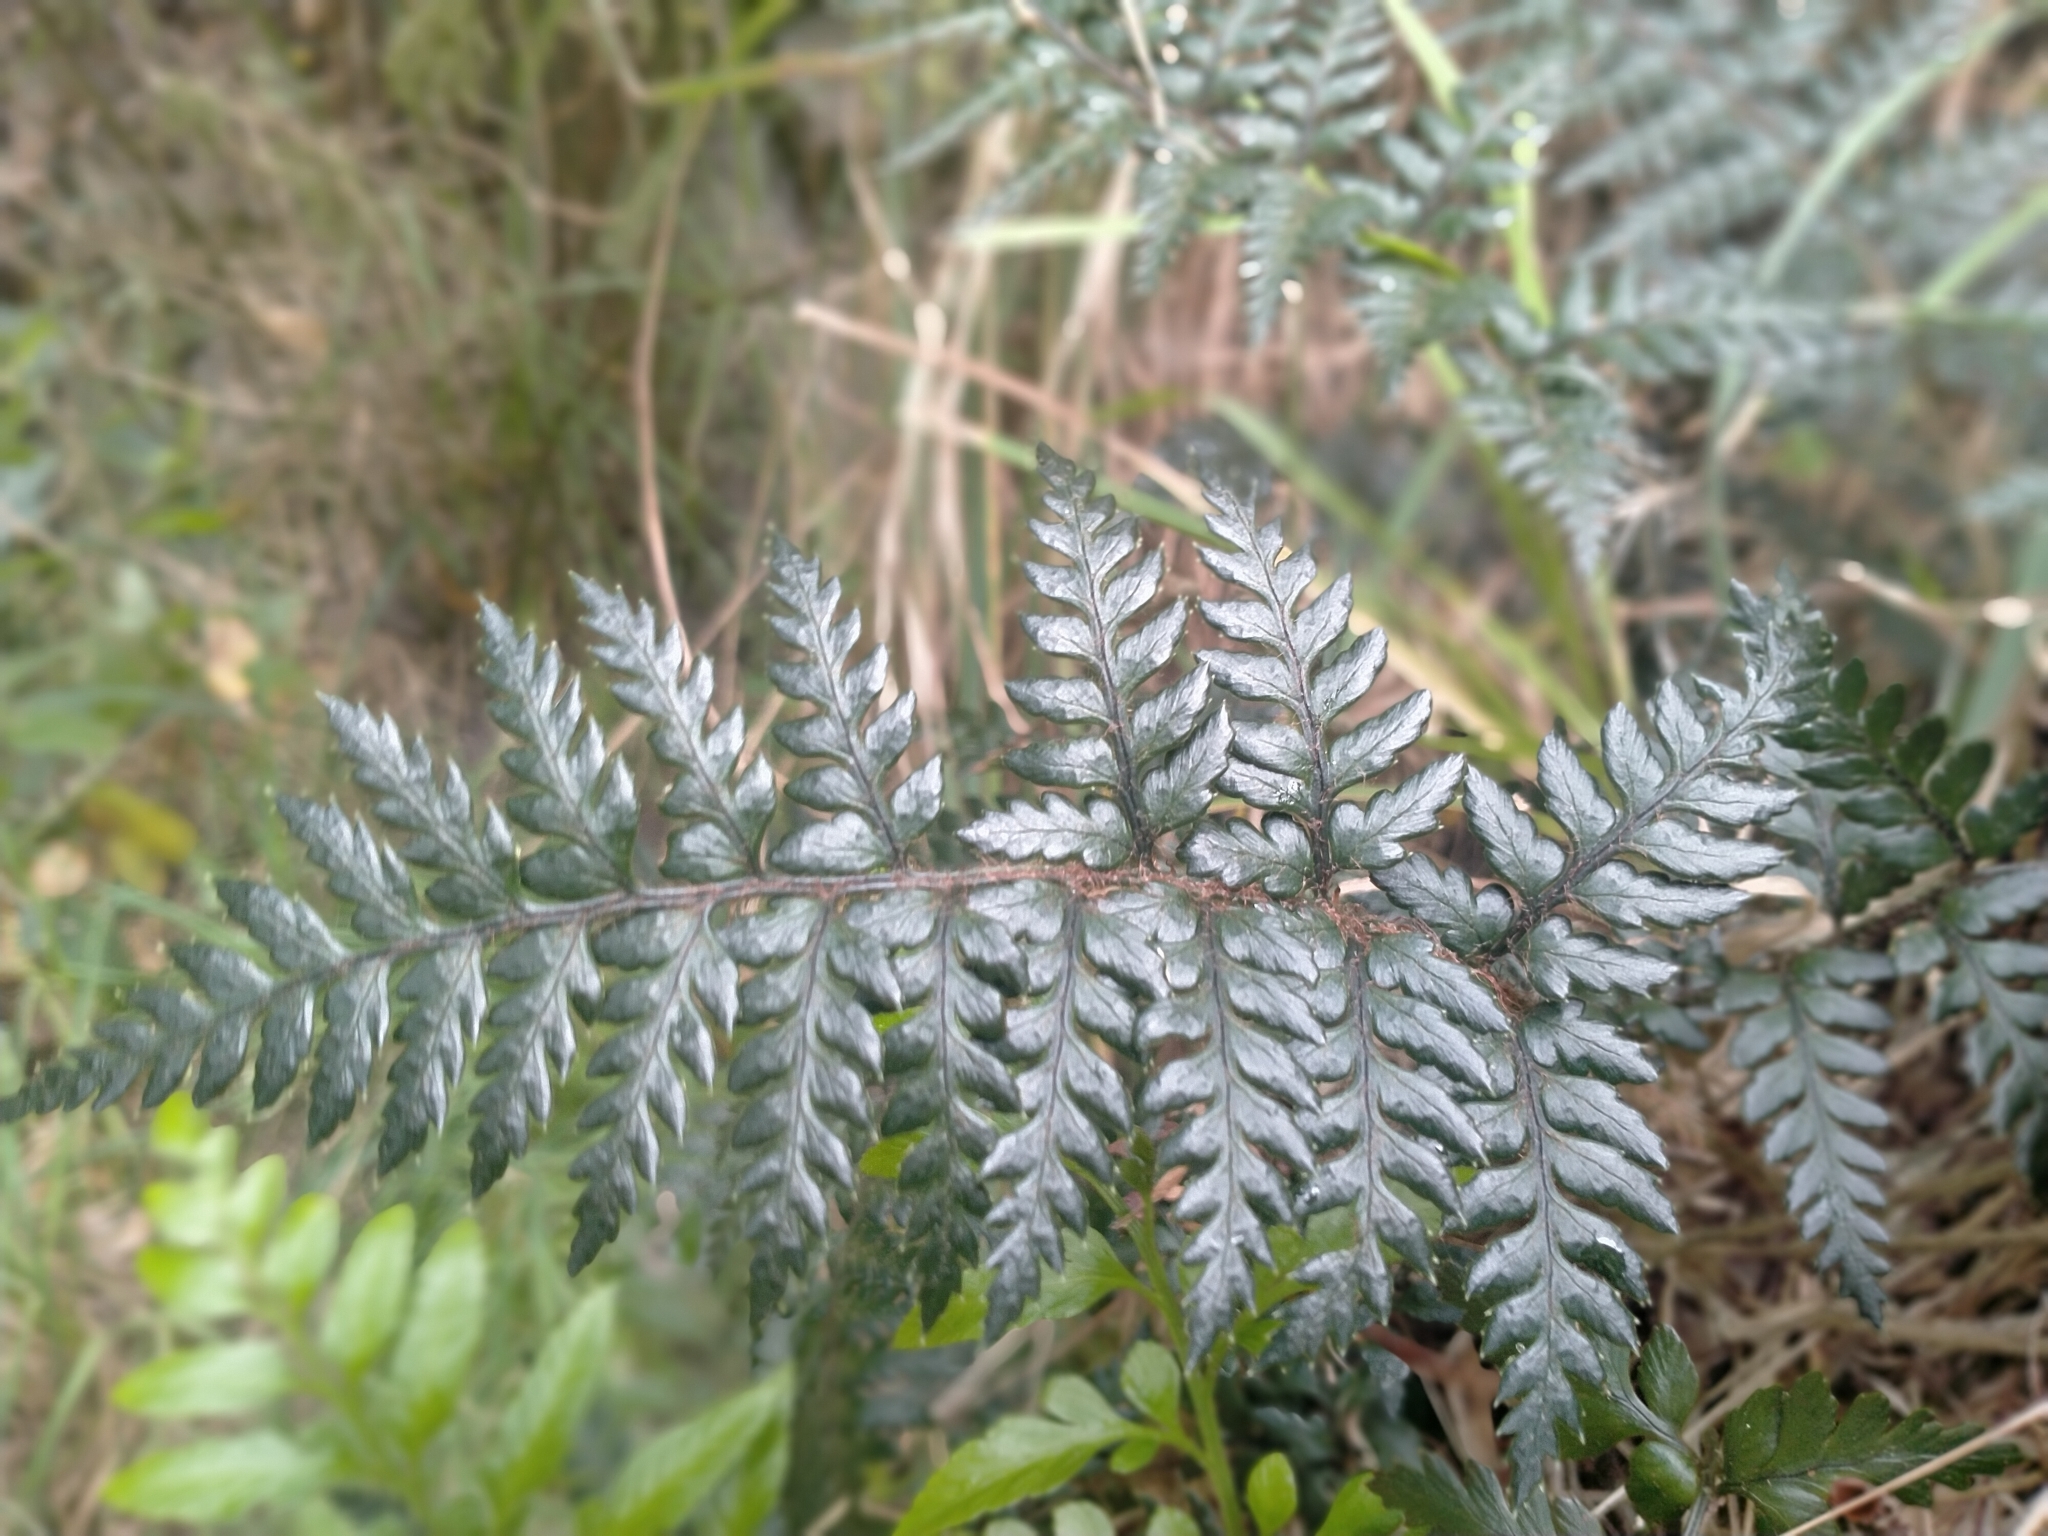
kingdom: Plantae
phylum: Tracheophyta
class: Polypodiopsida
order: Polypodiales
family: Dryopteridaceae
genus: Polystichum
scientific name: Polystichum neozelandicum
